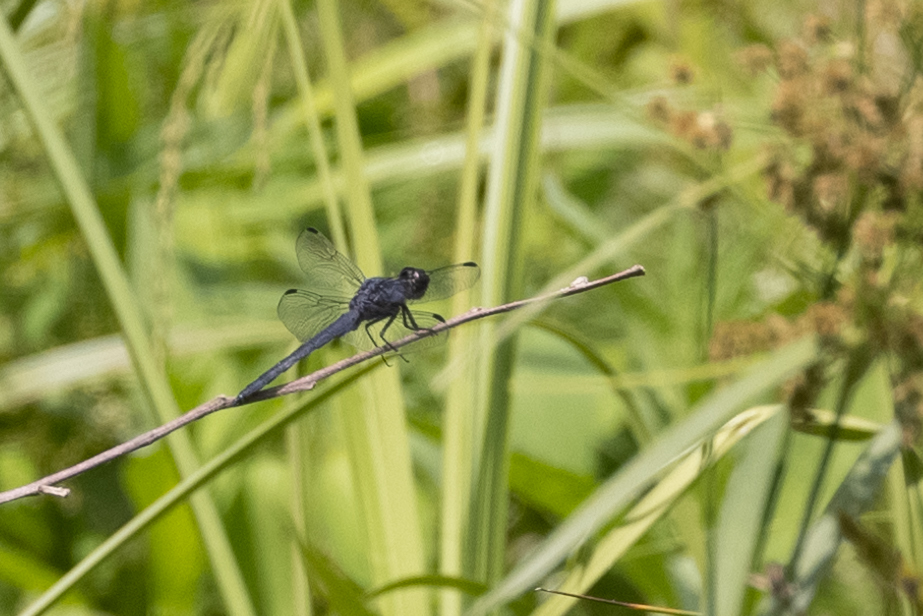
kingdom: Animalia
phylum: Arthropoda
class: Insecta
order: Odonata
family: Libellulidae
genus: Libellula
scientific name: Libellula incesta
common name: Slaty skimmer
